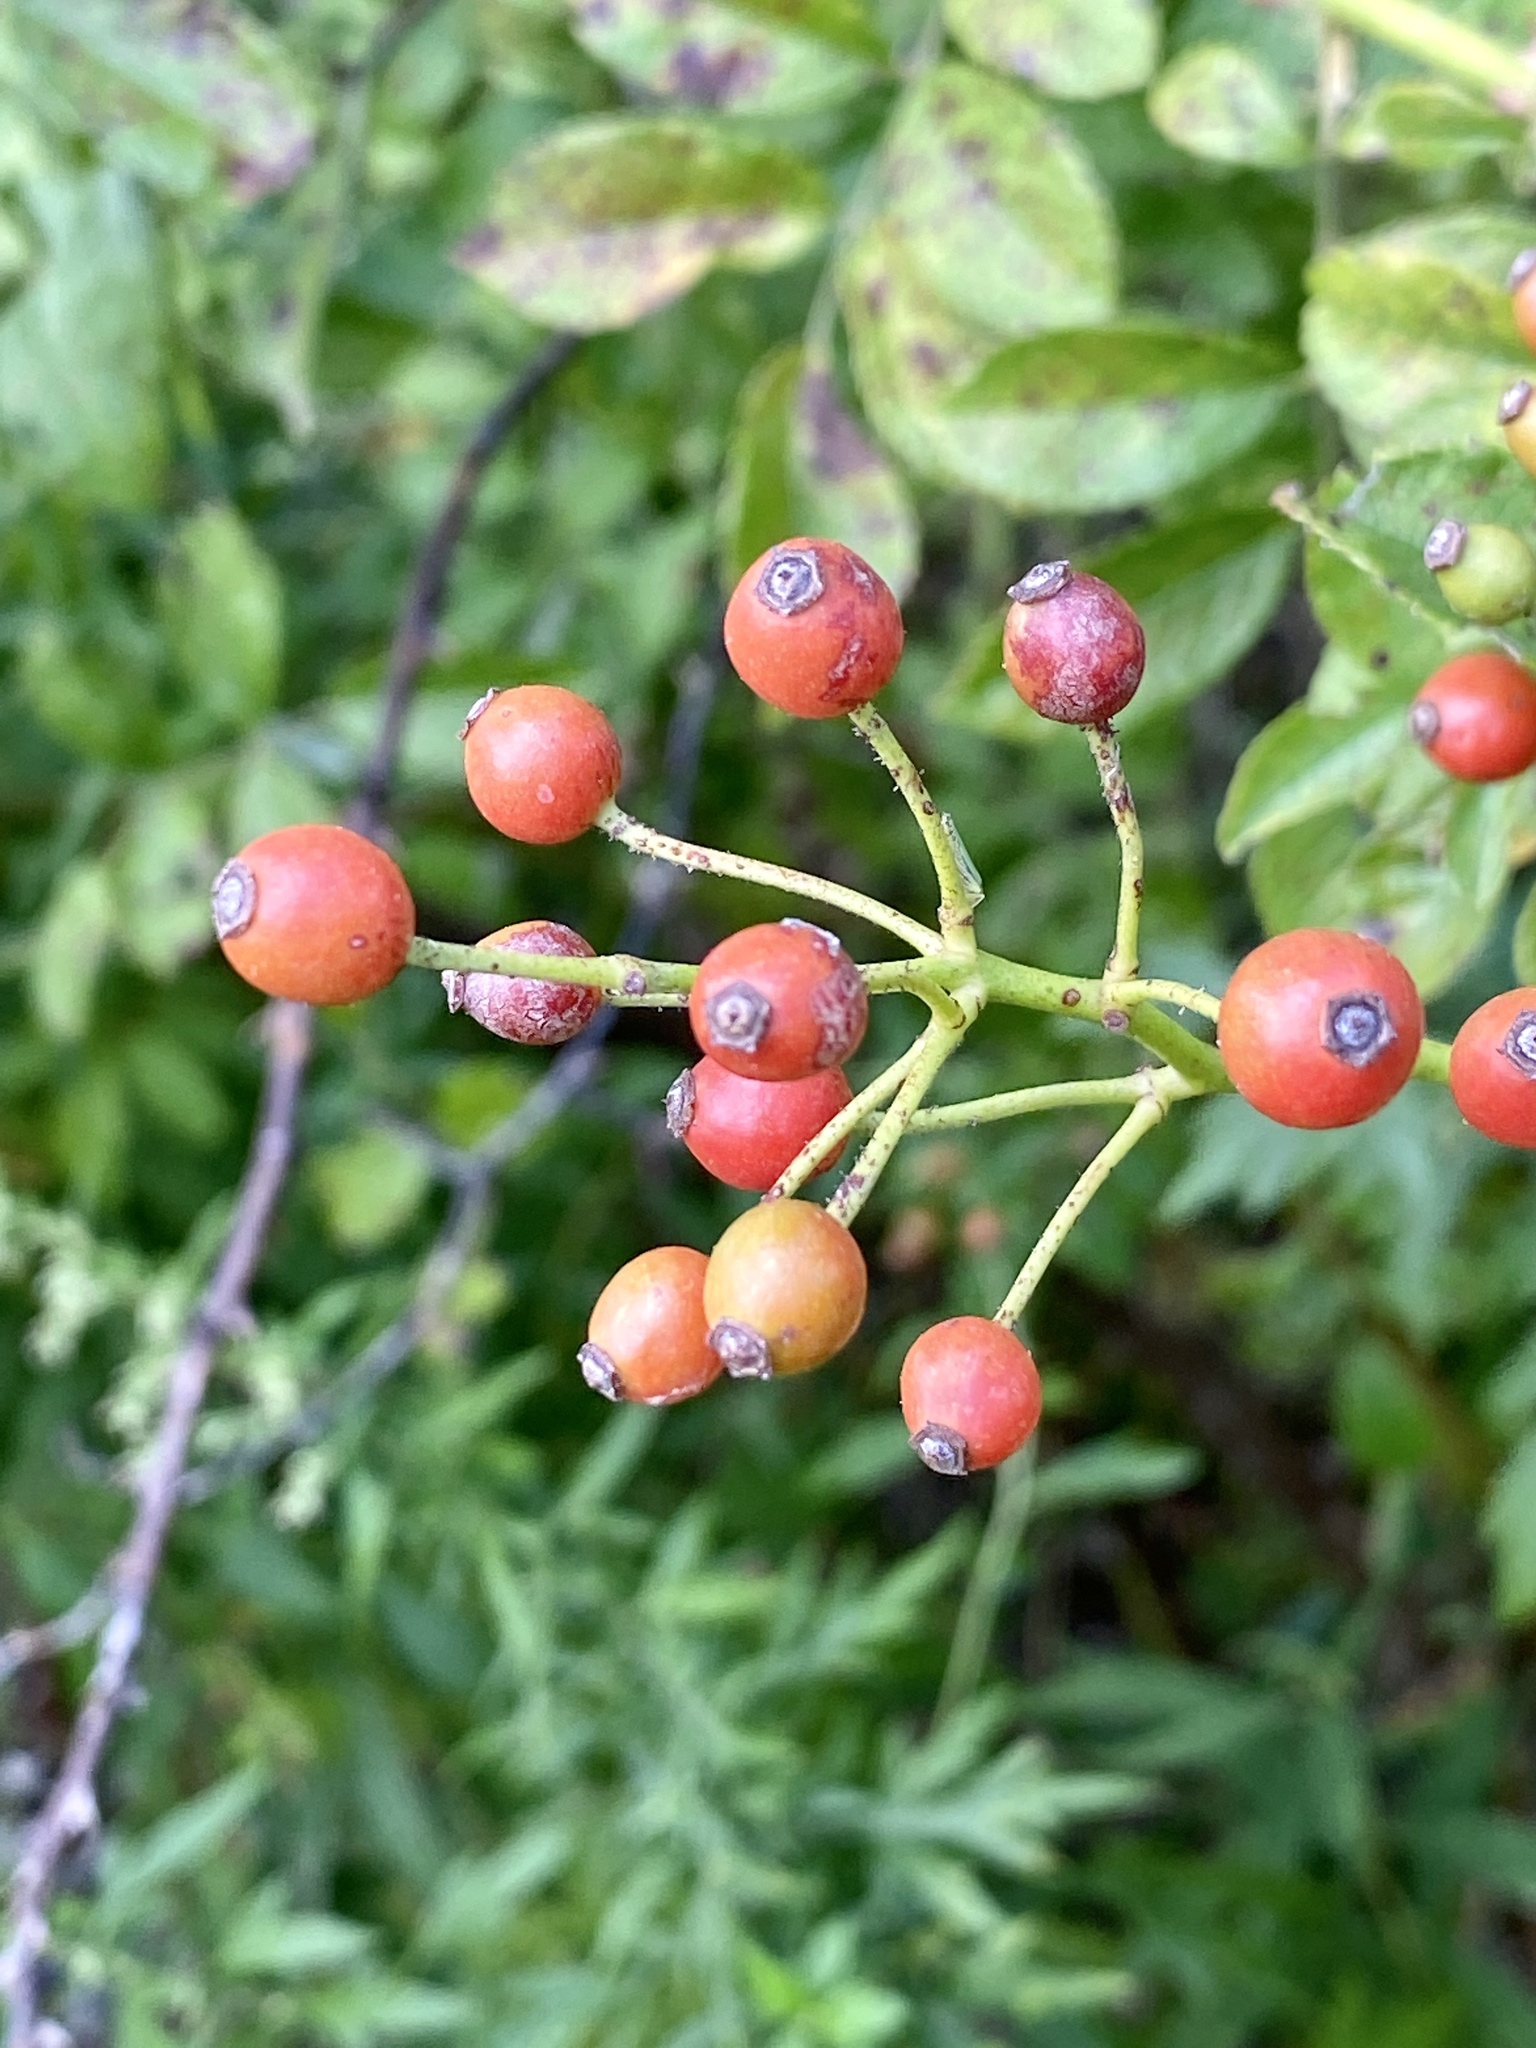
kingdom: Plantae
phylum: Tracheophyta
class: Magnoliopsida
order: Rosales
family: Rosaceae
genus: Rosa
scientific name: Rosa multiflora
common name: Multiflora rose
